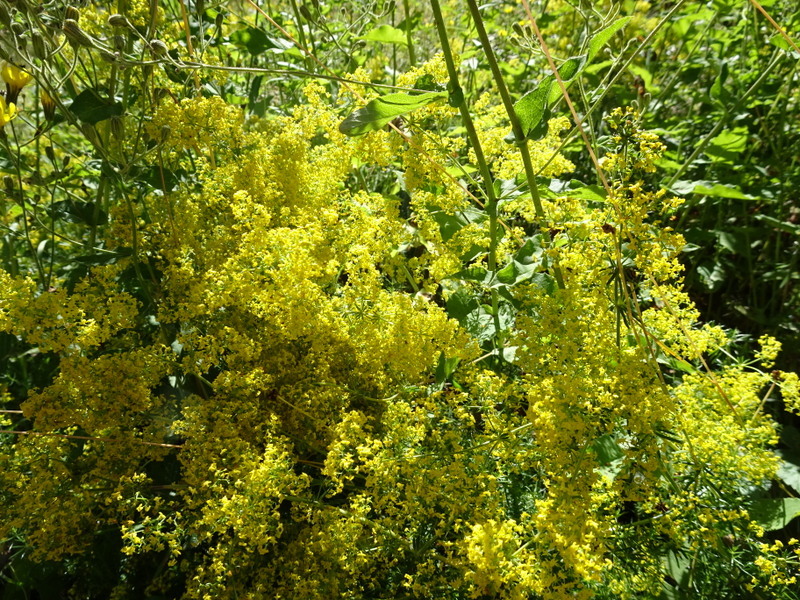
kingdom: Plantae
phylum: Tracheophyta
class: Magnoliopsida
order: Gentianales
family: Rubiaceae
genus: Galium
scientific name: Galium verum
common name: Lady's bedstraw
